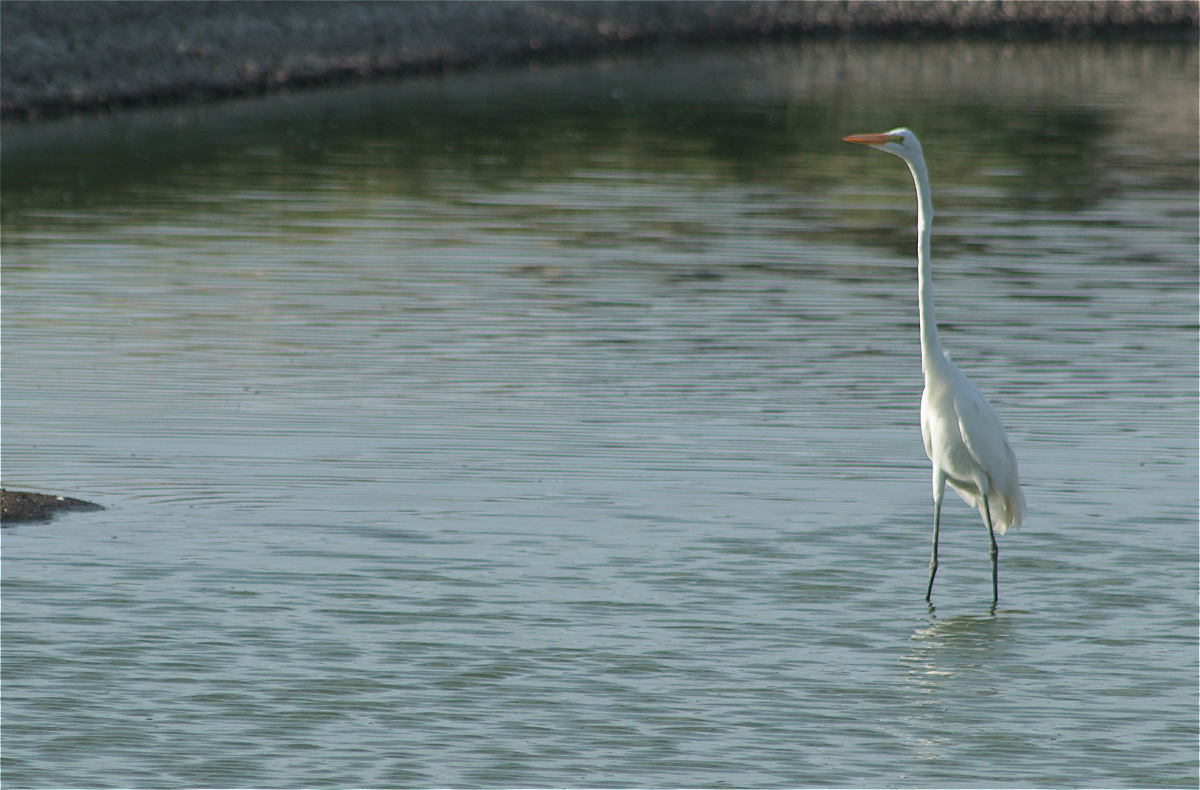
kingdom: Animalia
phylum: Chordata
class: Aves
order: Pelecaniformes
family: Ardeidae
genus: Ardea
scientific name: Ardea alba
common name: Great egret
